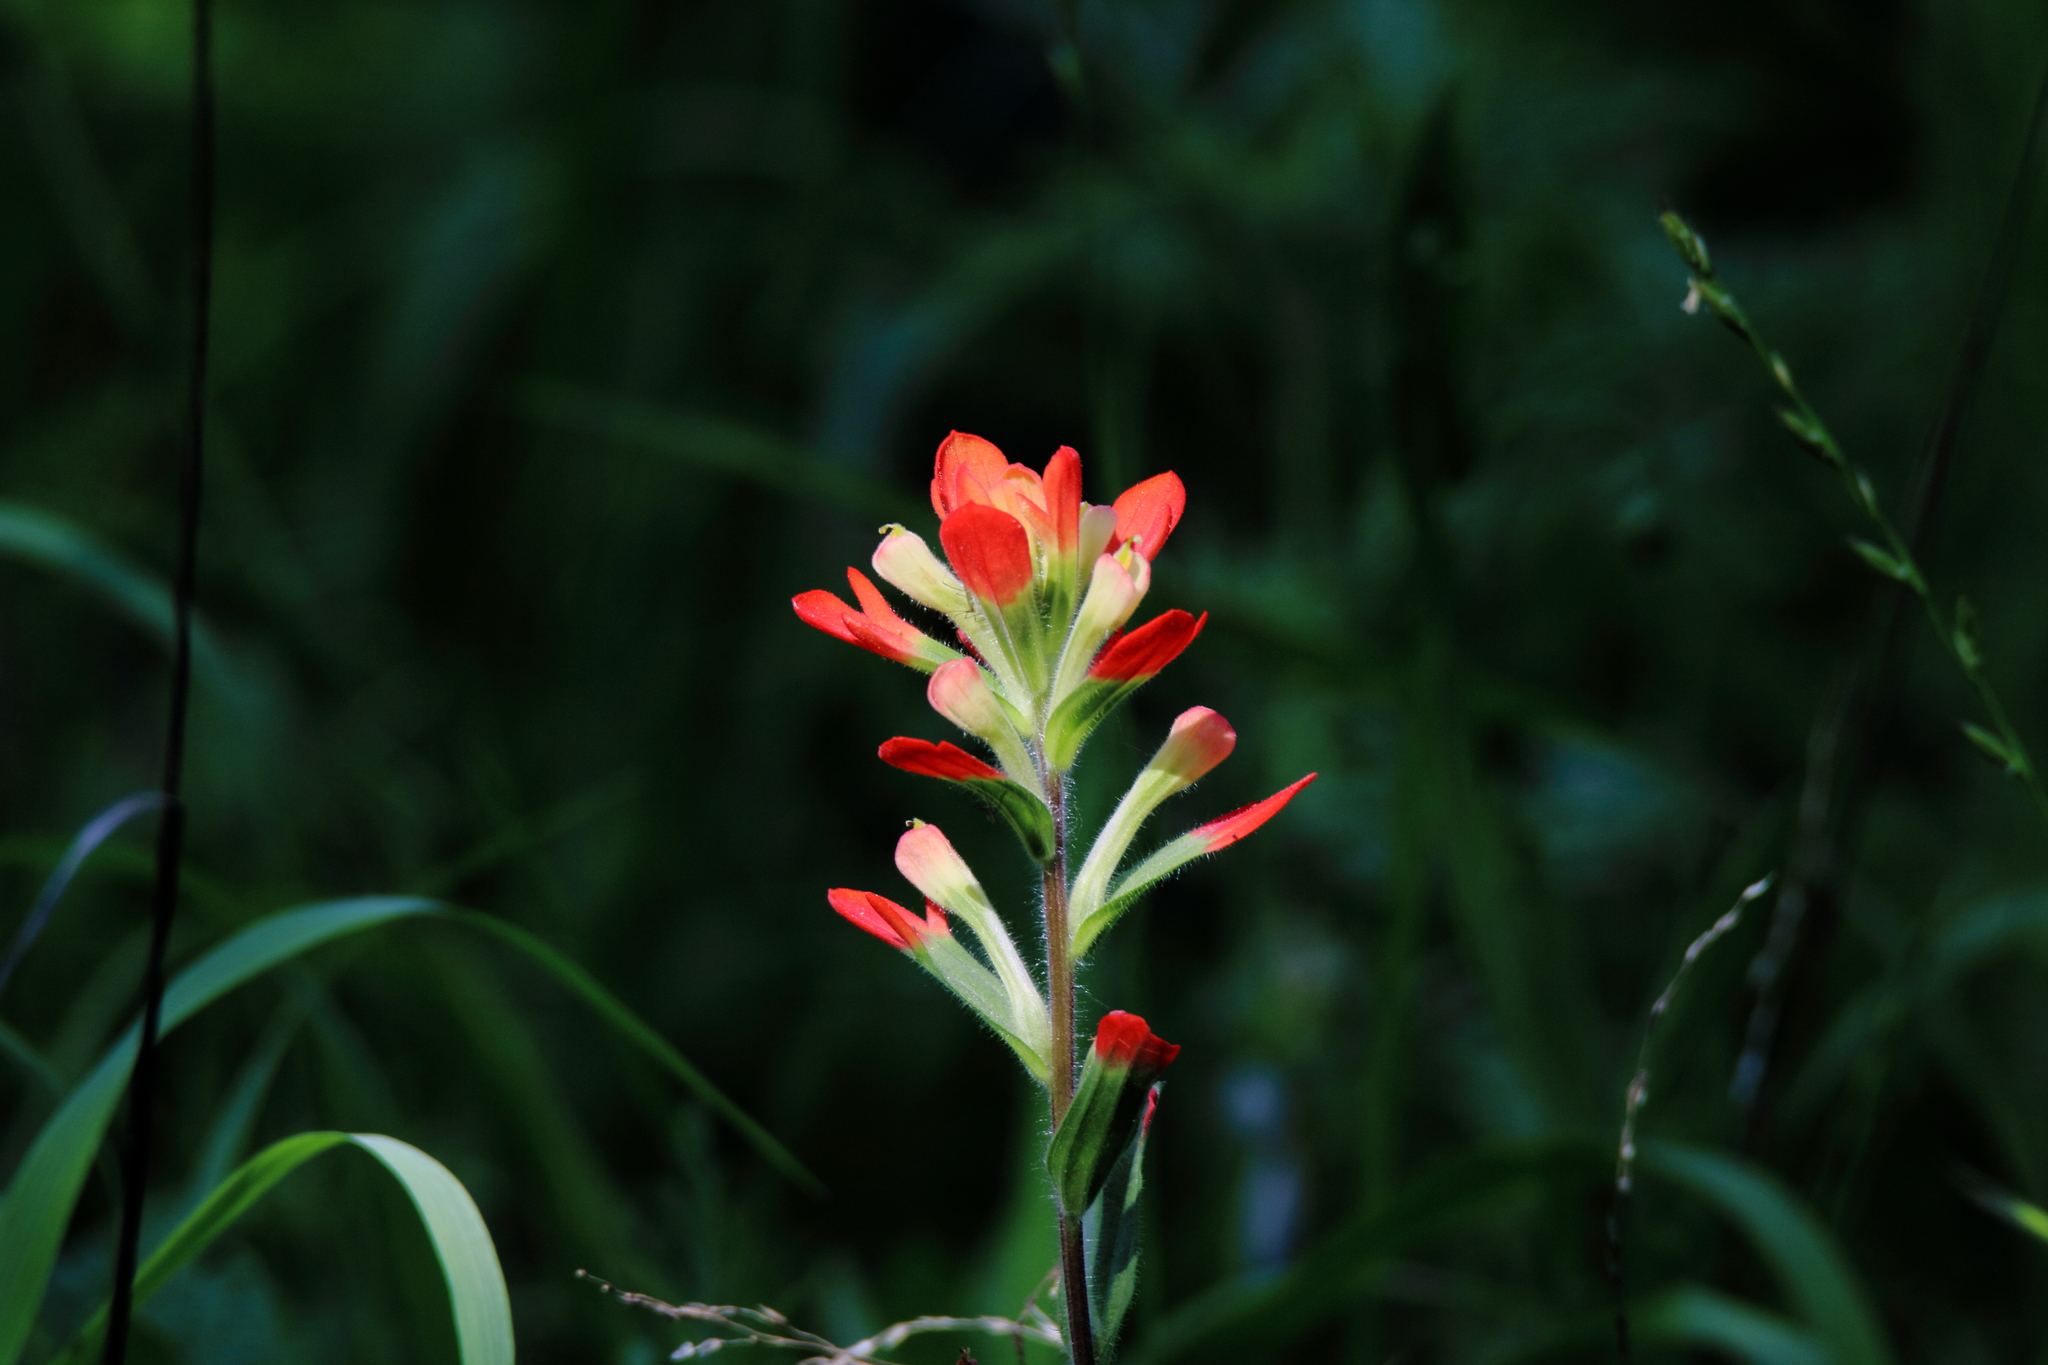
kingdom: Plantae
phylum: Tracheophyta
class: Magnoliopsida
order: Lamiales
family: Orobanchaceae
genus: Castilleja
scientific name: Castilleja indivisa
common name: Texas paintbrush
